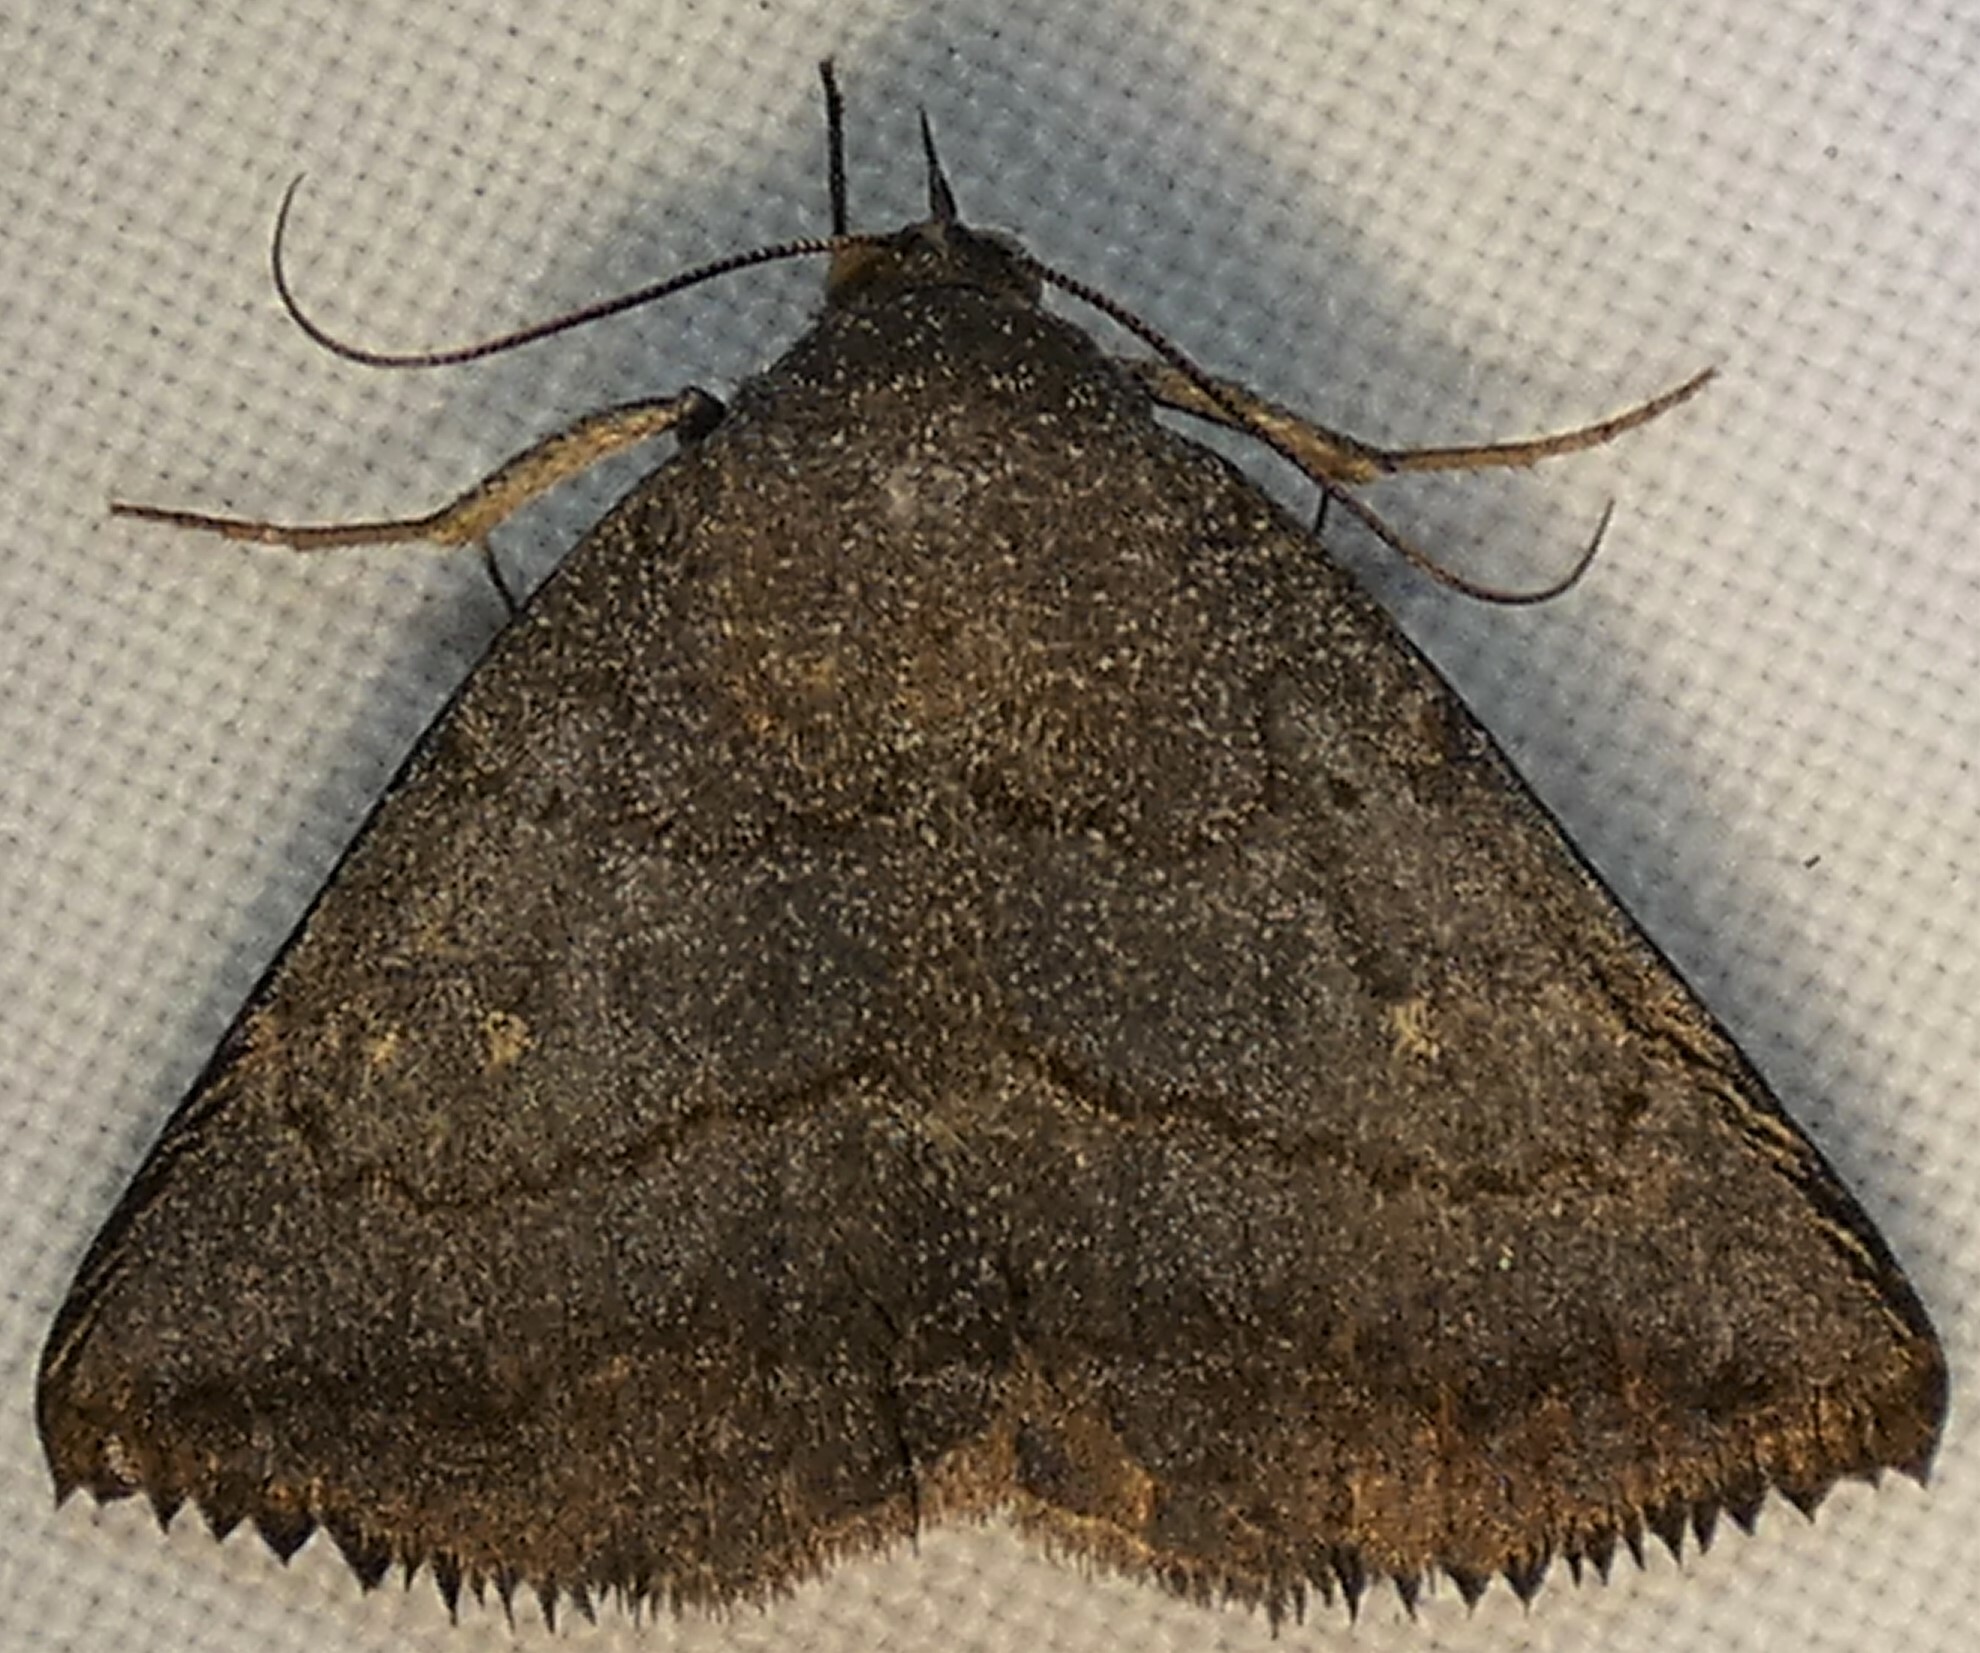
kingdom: Animalia
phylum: Arthropoda
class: Insecta
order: Lepidoptera
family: Erebidae
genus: Lesmone
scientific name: Lesmone detrahens
